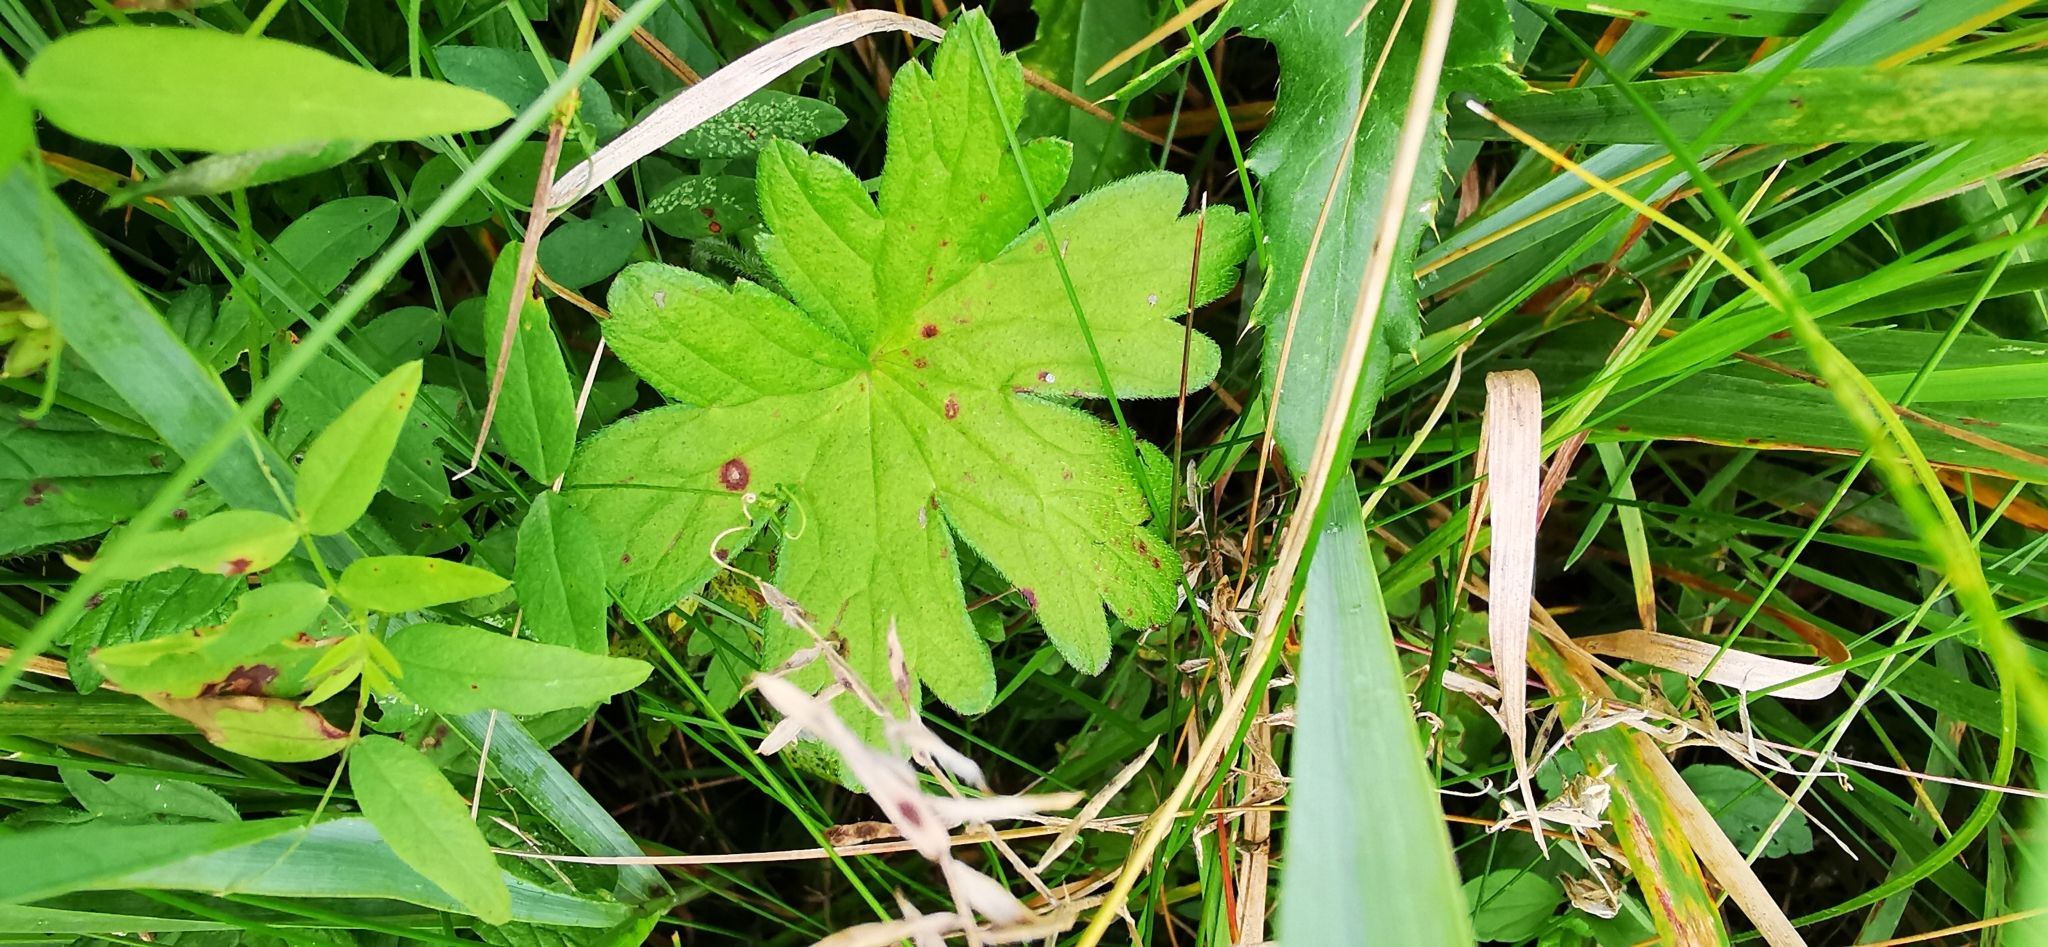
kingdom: Plantae
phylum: Tracheophyta
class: Magnoliopsida
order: Geraniales
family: Geraniaceae
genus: Geranium
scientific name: Geranium palustre
